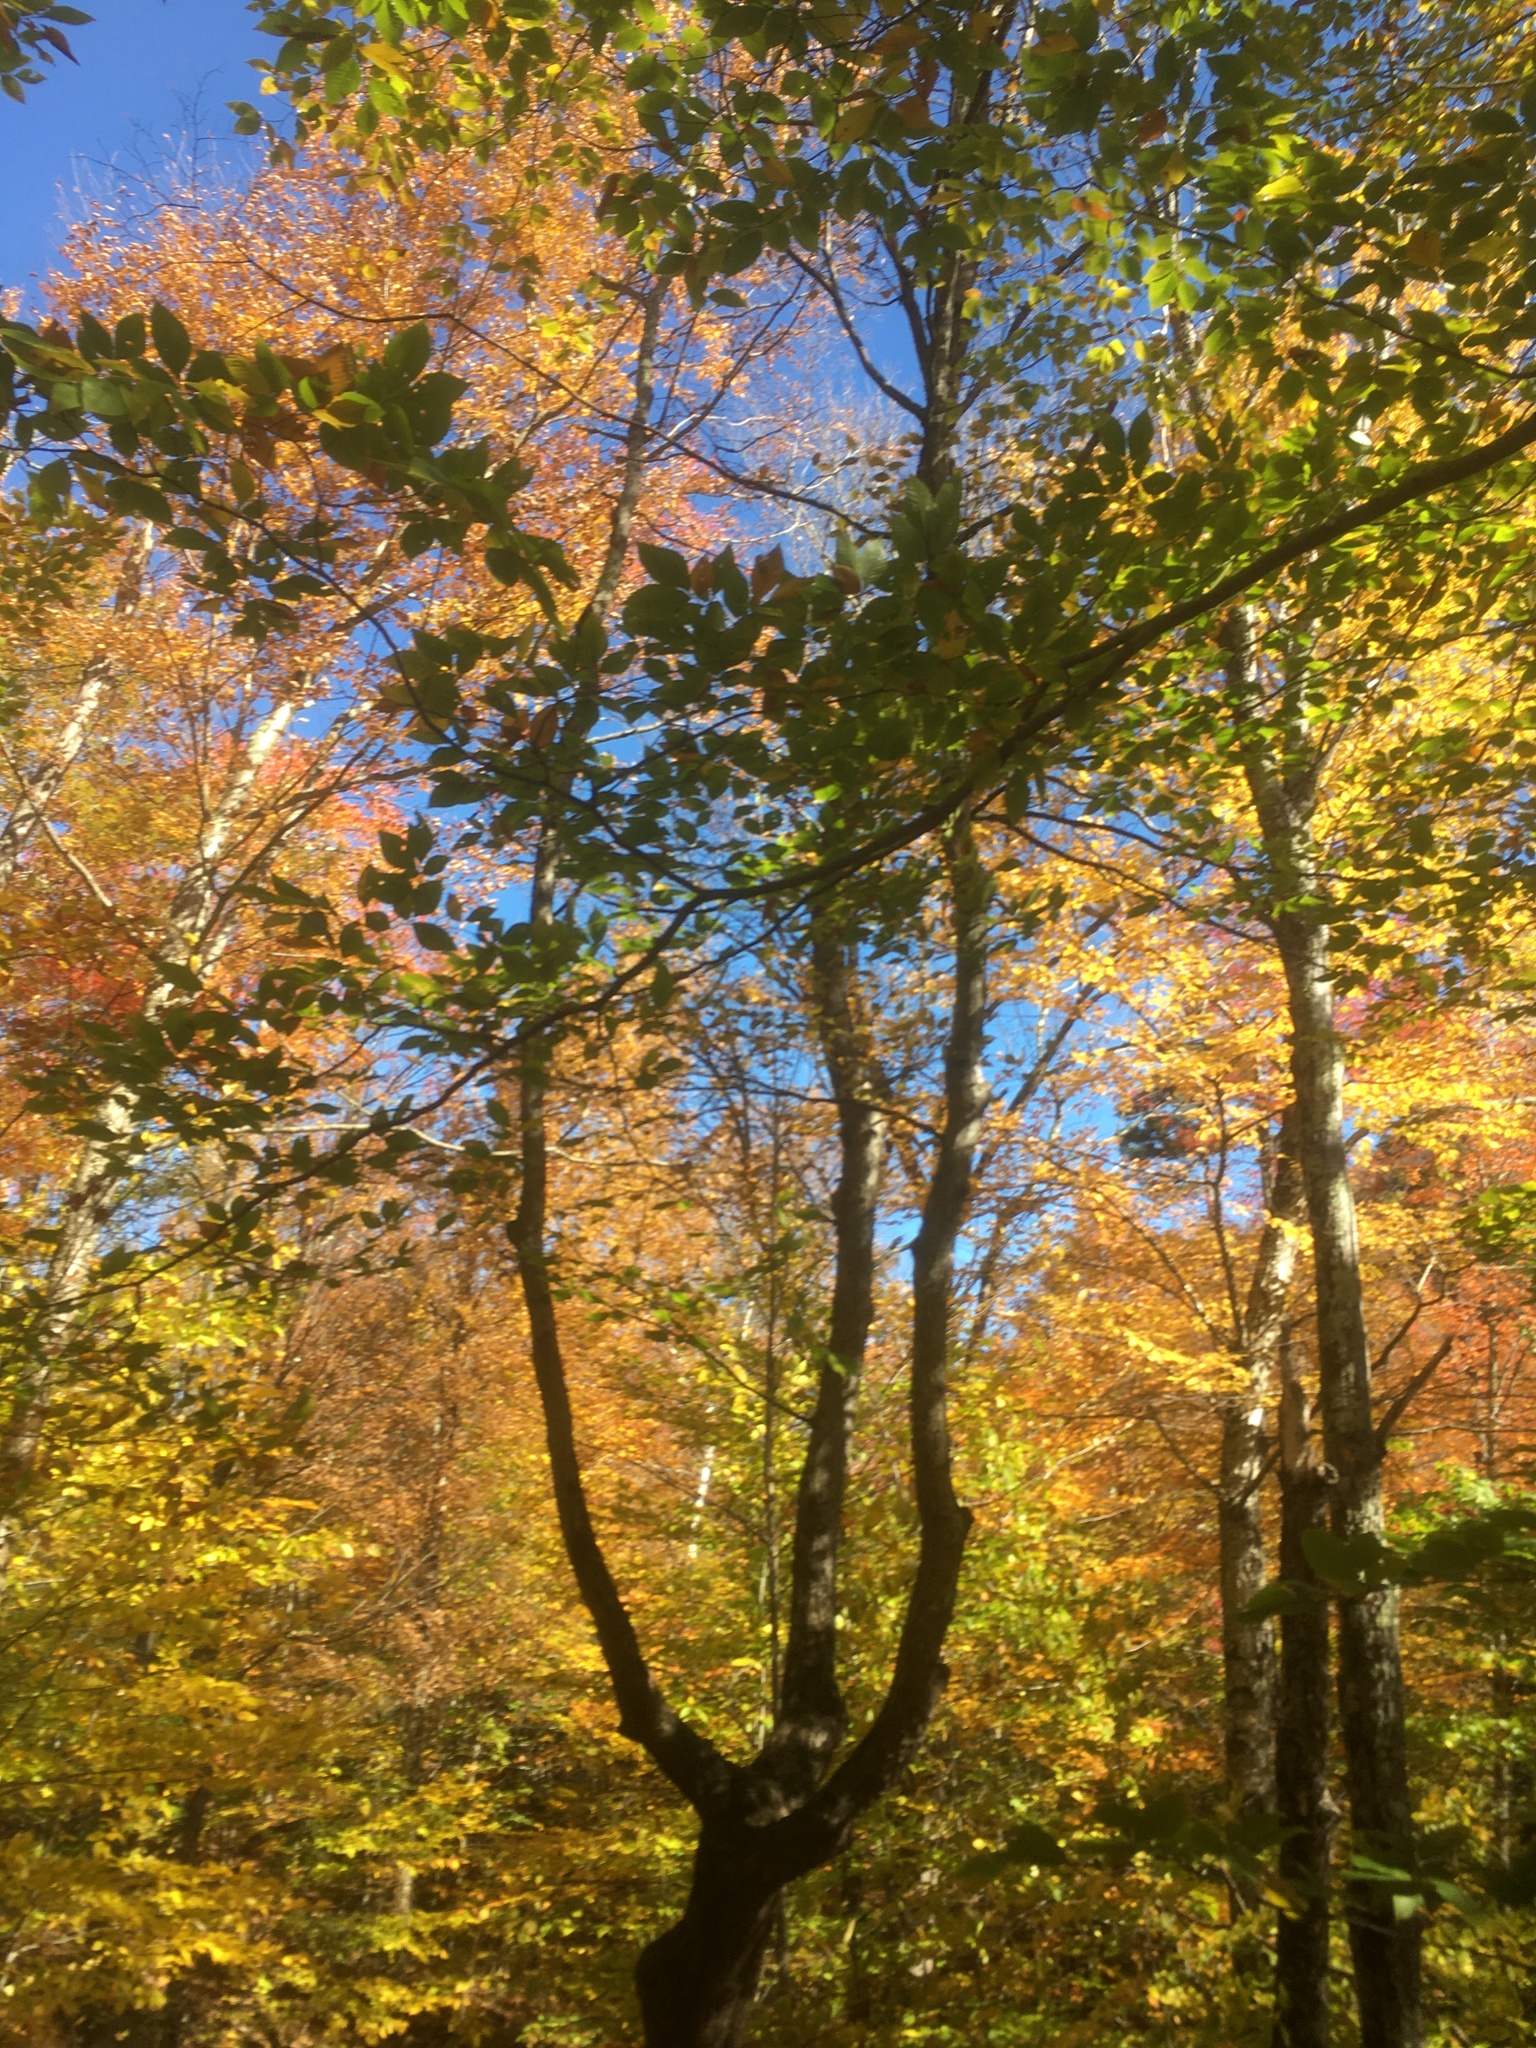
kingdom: Plantae
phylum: Tracheophyta
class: Magnoliopsida
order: Fagales
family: Betulaceae
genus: Ostrya
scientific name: Ostrya virginiana
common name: Ironwood
